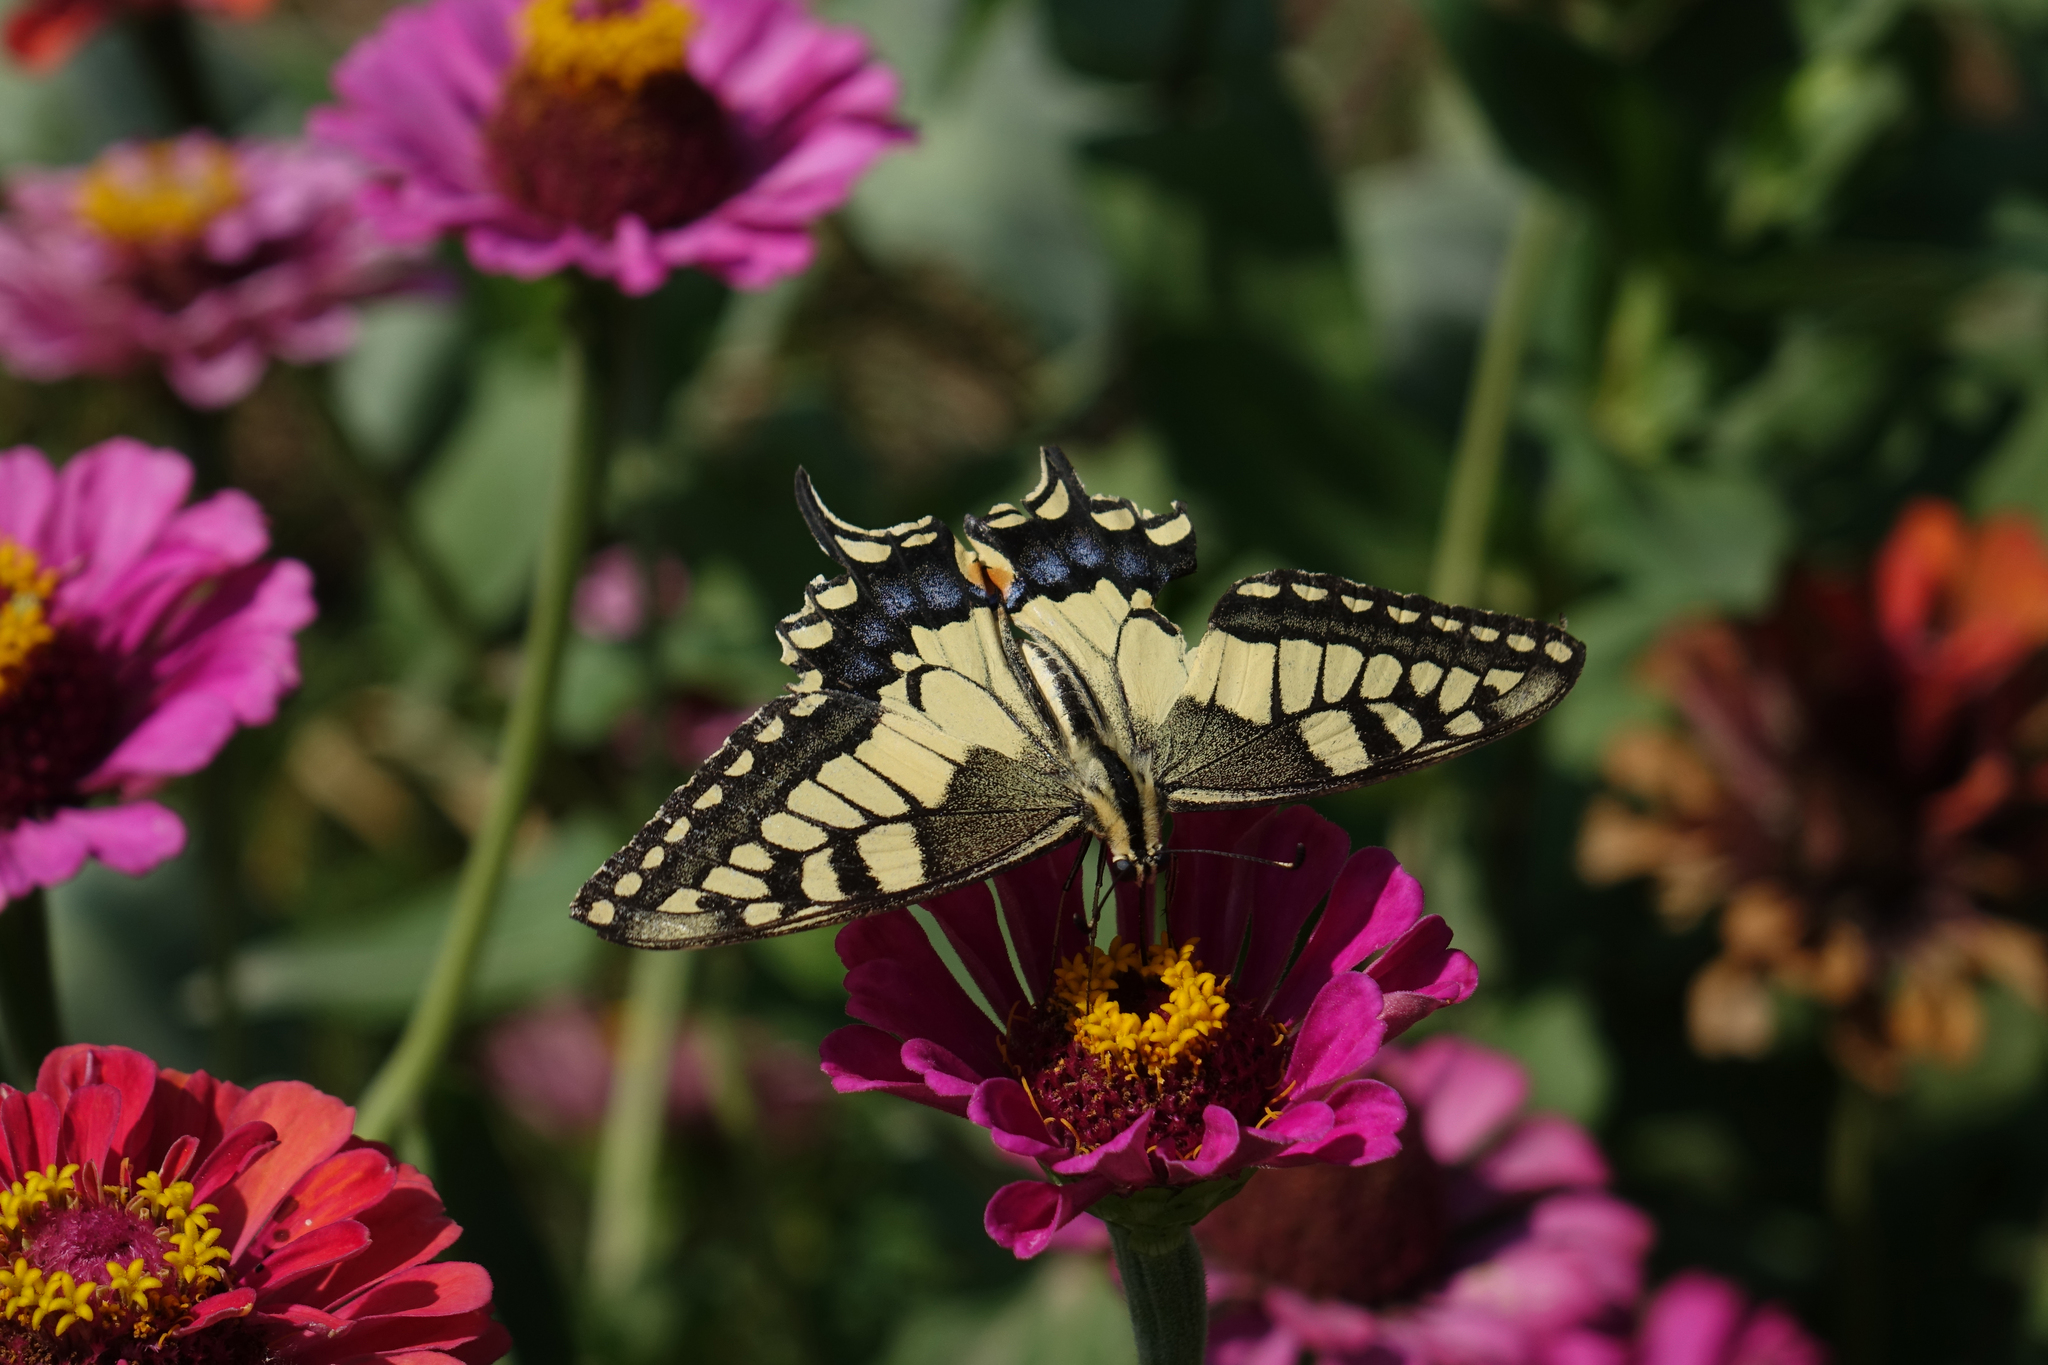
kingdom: Animalia
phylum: Arthropoda
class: Insecta
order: Lepidoptera
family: Papilionidae
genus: Papilio
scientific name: Papilio machaon
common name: Swallowtail
